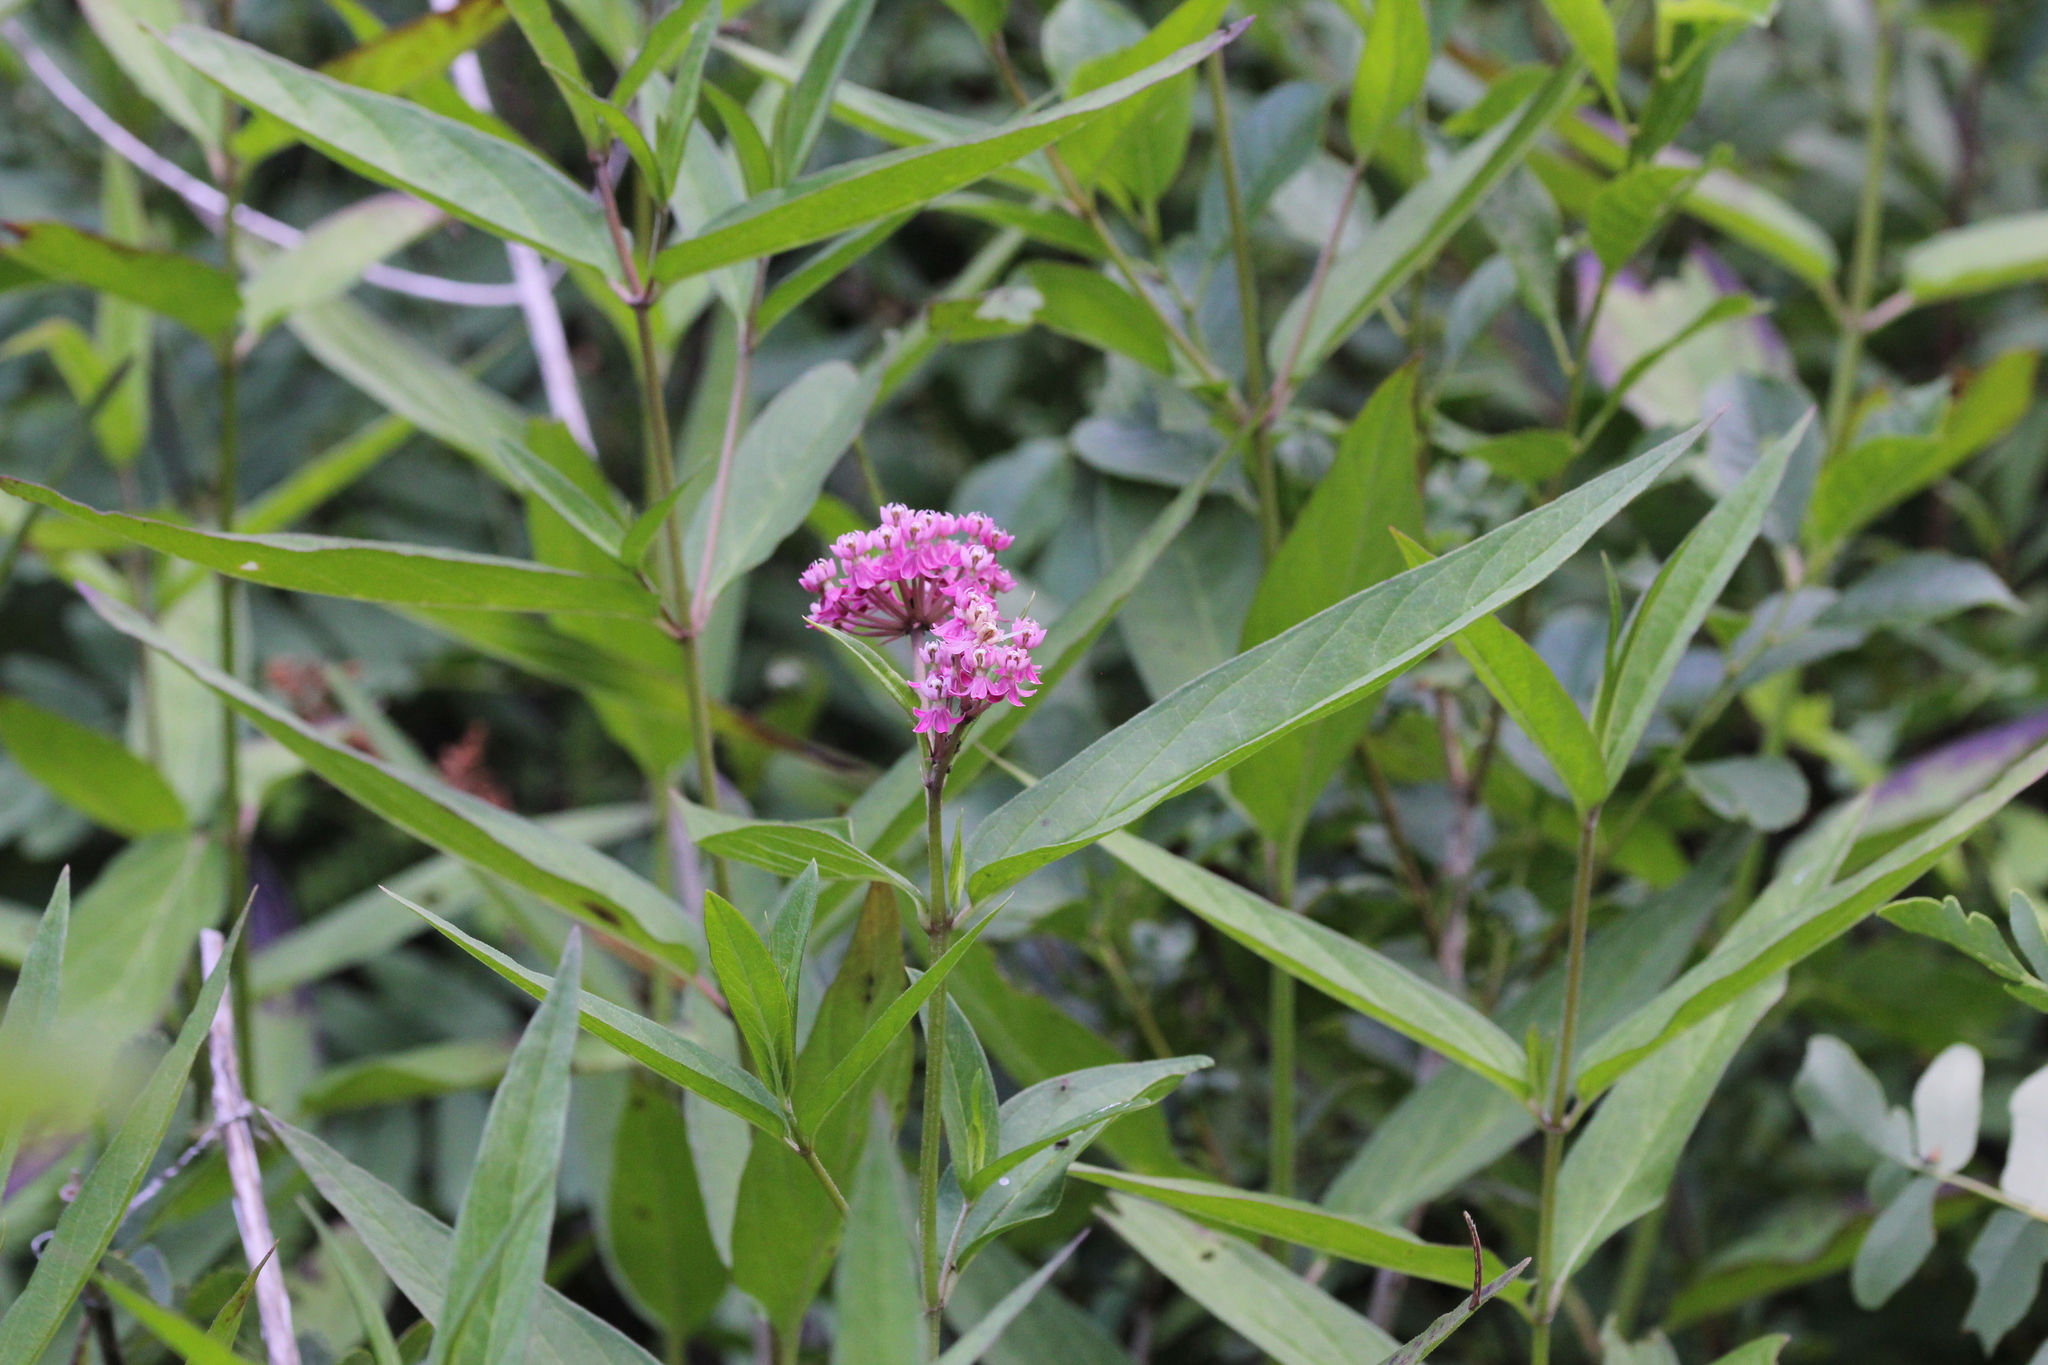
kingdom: Plantae
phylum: Tracheophyta
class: Magnoliopsida
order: Gentianales
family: Apocynaceae
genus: Asclepias
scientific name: Asclepias incarnata
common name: Swamp milkweed
